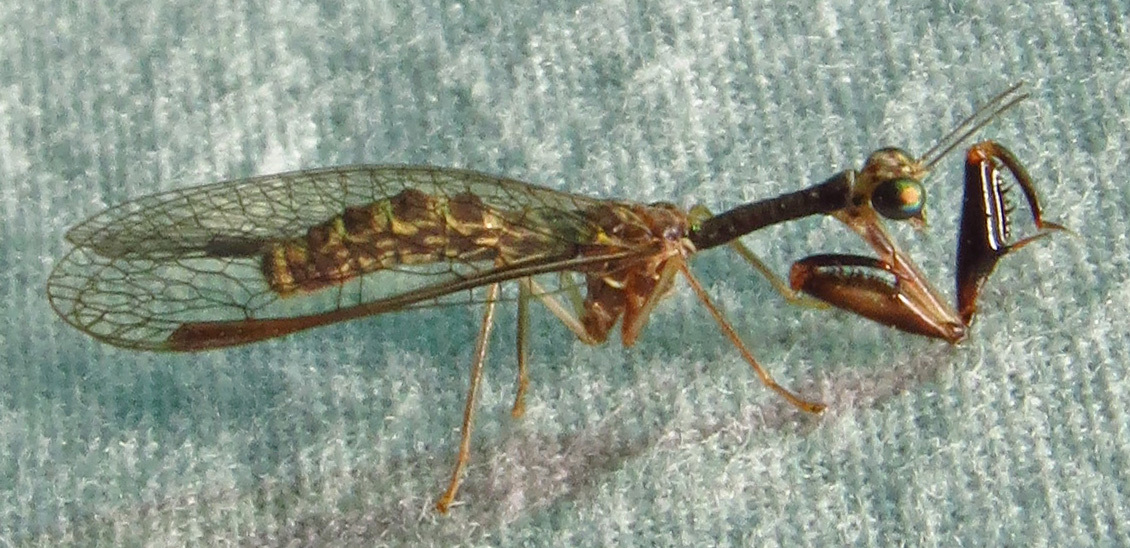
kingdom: Animalia
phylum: Arthropoda
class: Insecta
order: Neuroptera
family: Mantispidae
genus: Leptomantispa
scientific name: Leptomantispa pulchella
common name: Stevens's mantidfly
